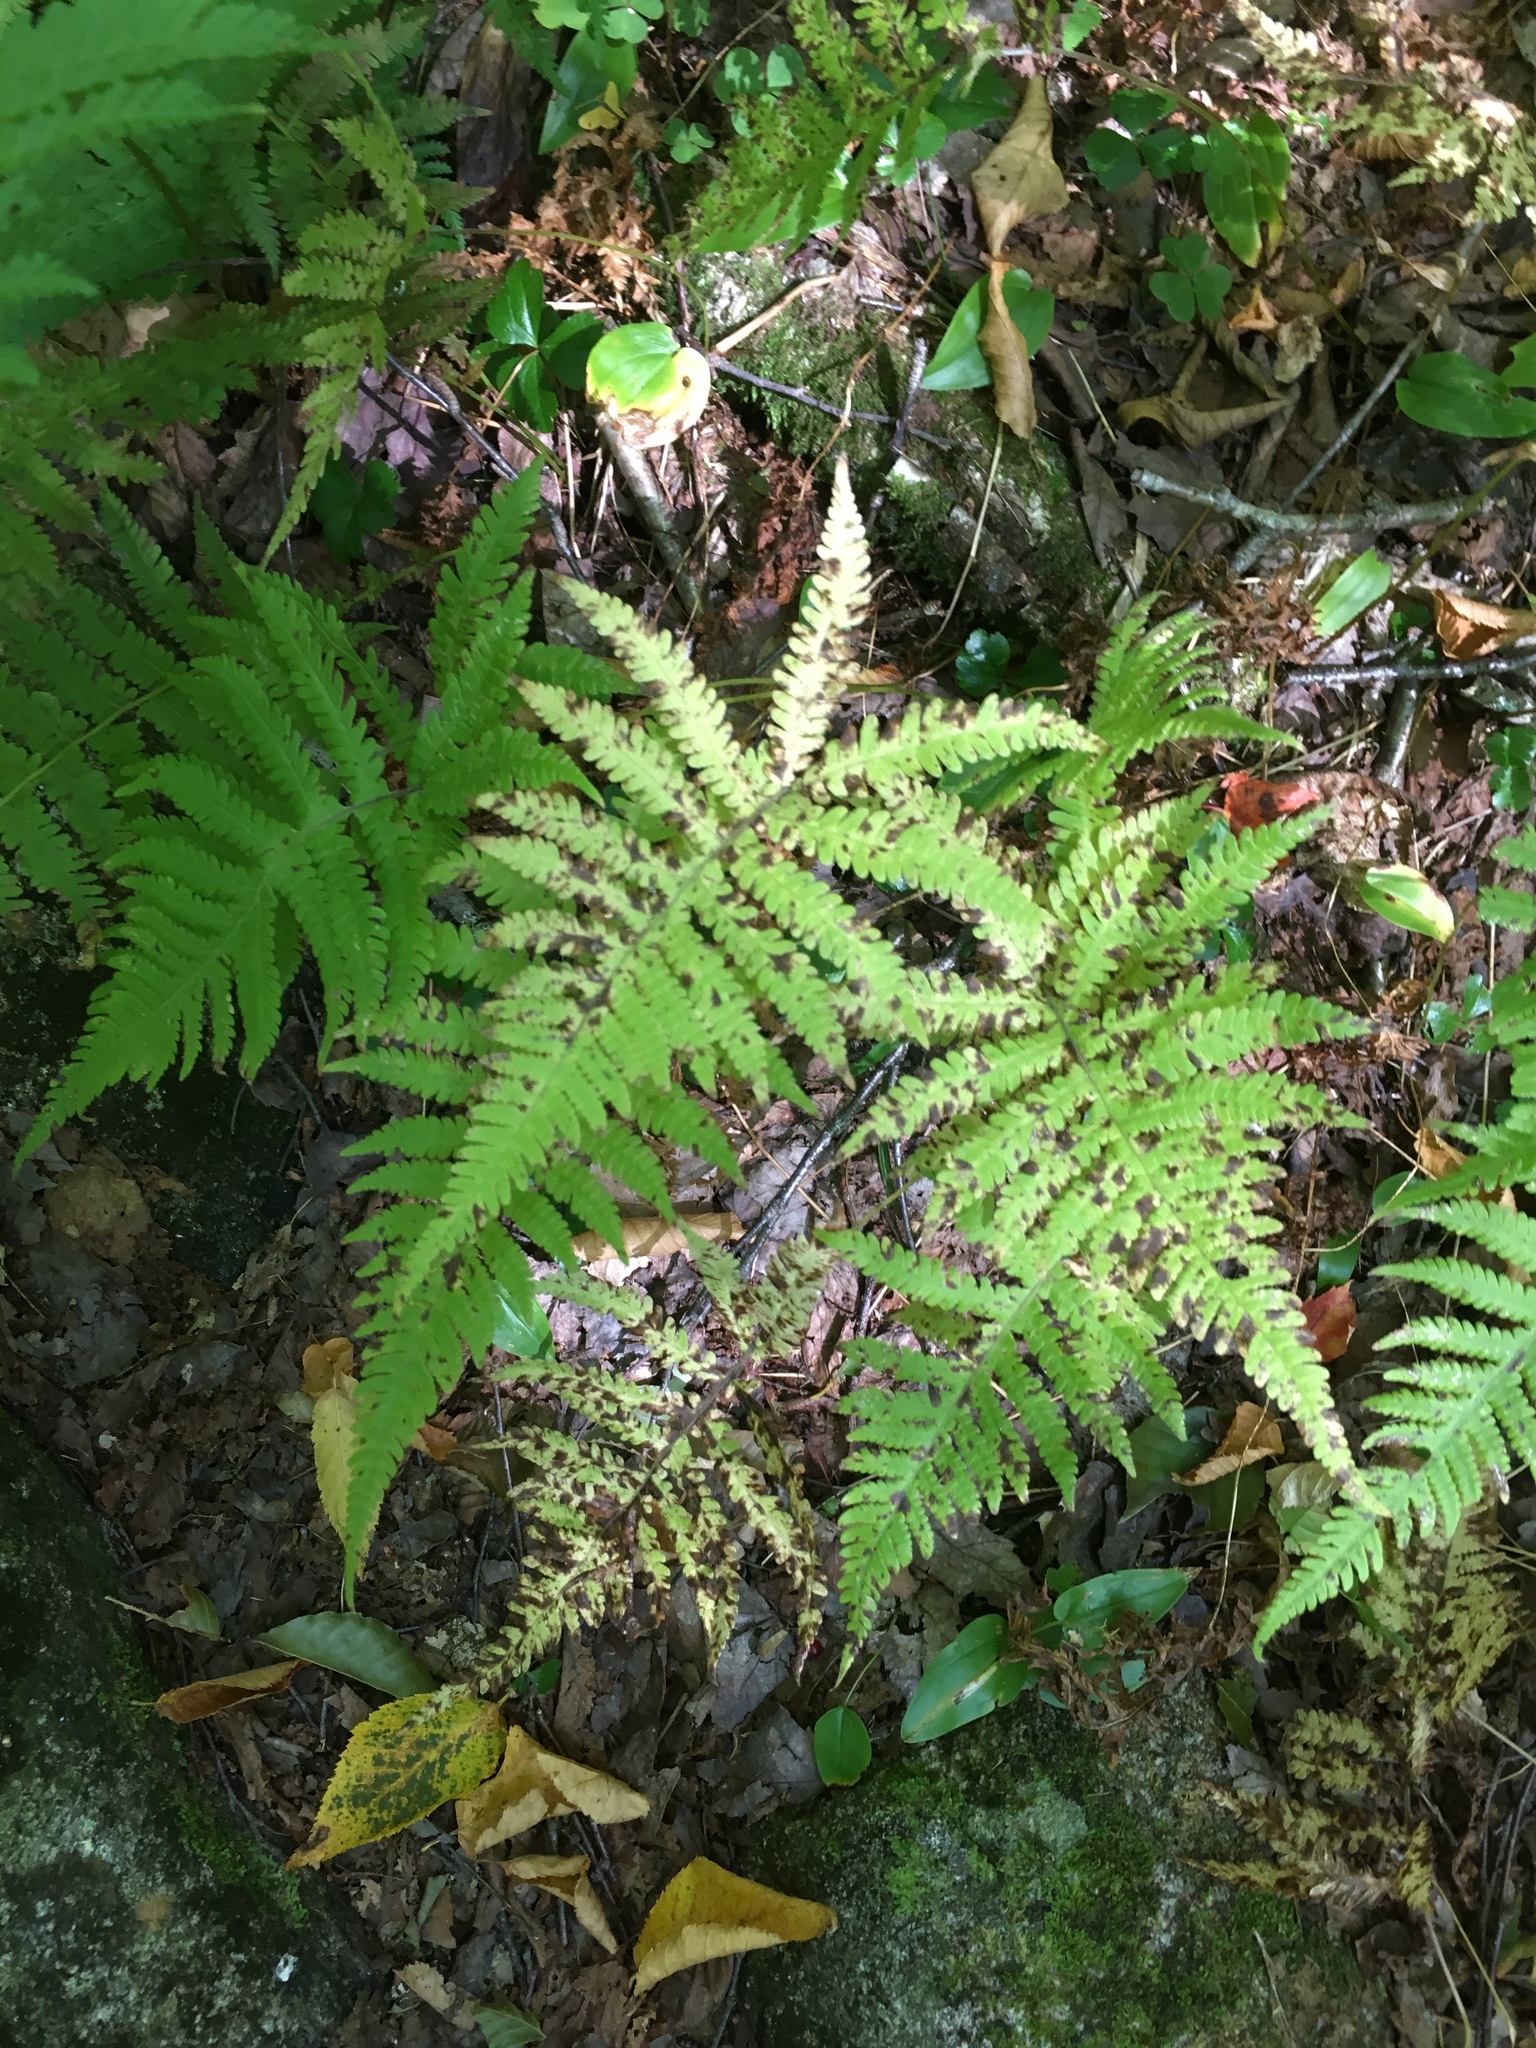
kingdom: Plantae
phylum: Tracheophyta
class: Polypodiopsida
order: Polypodiales
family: Thelypteridaceae
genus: Phegopteris
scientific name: Phegopteris connectilis
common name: Beech fern
